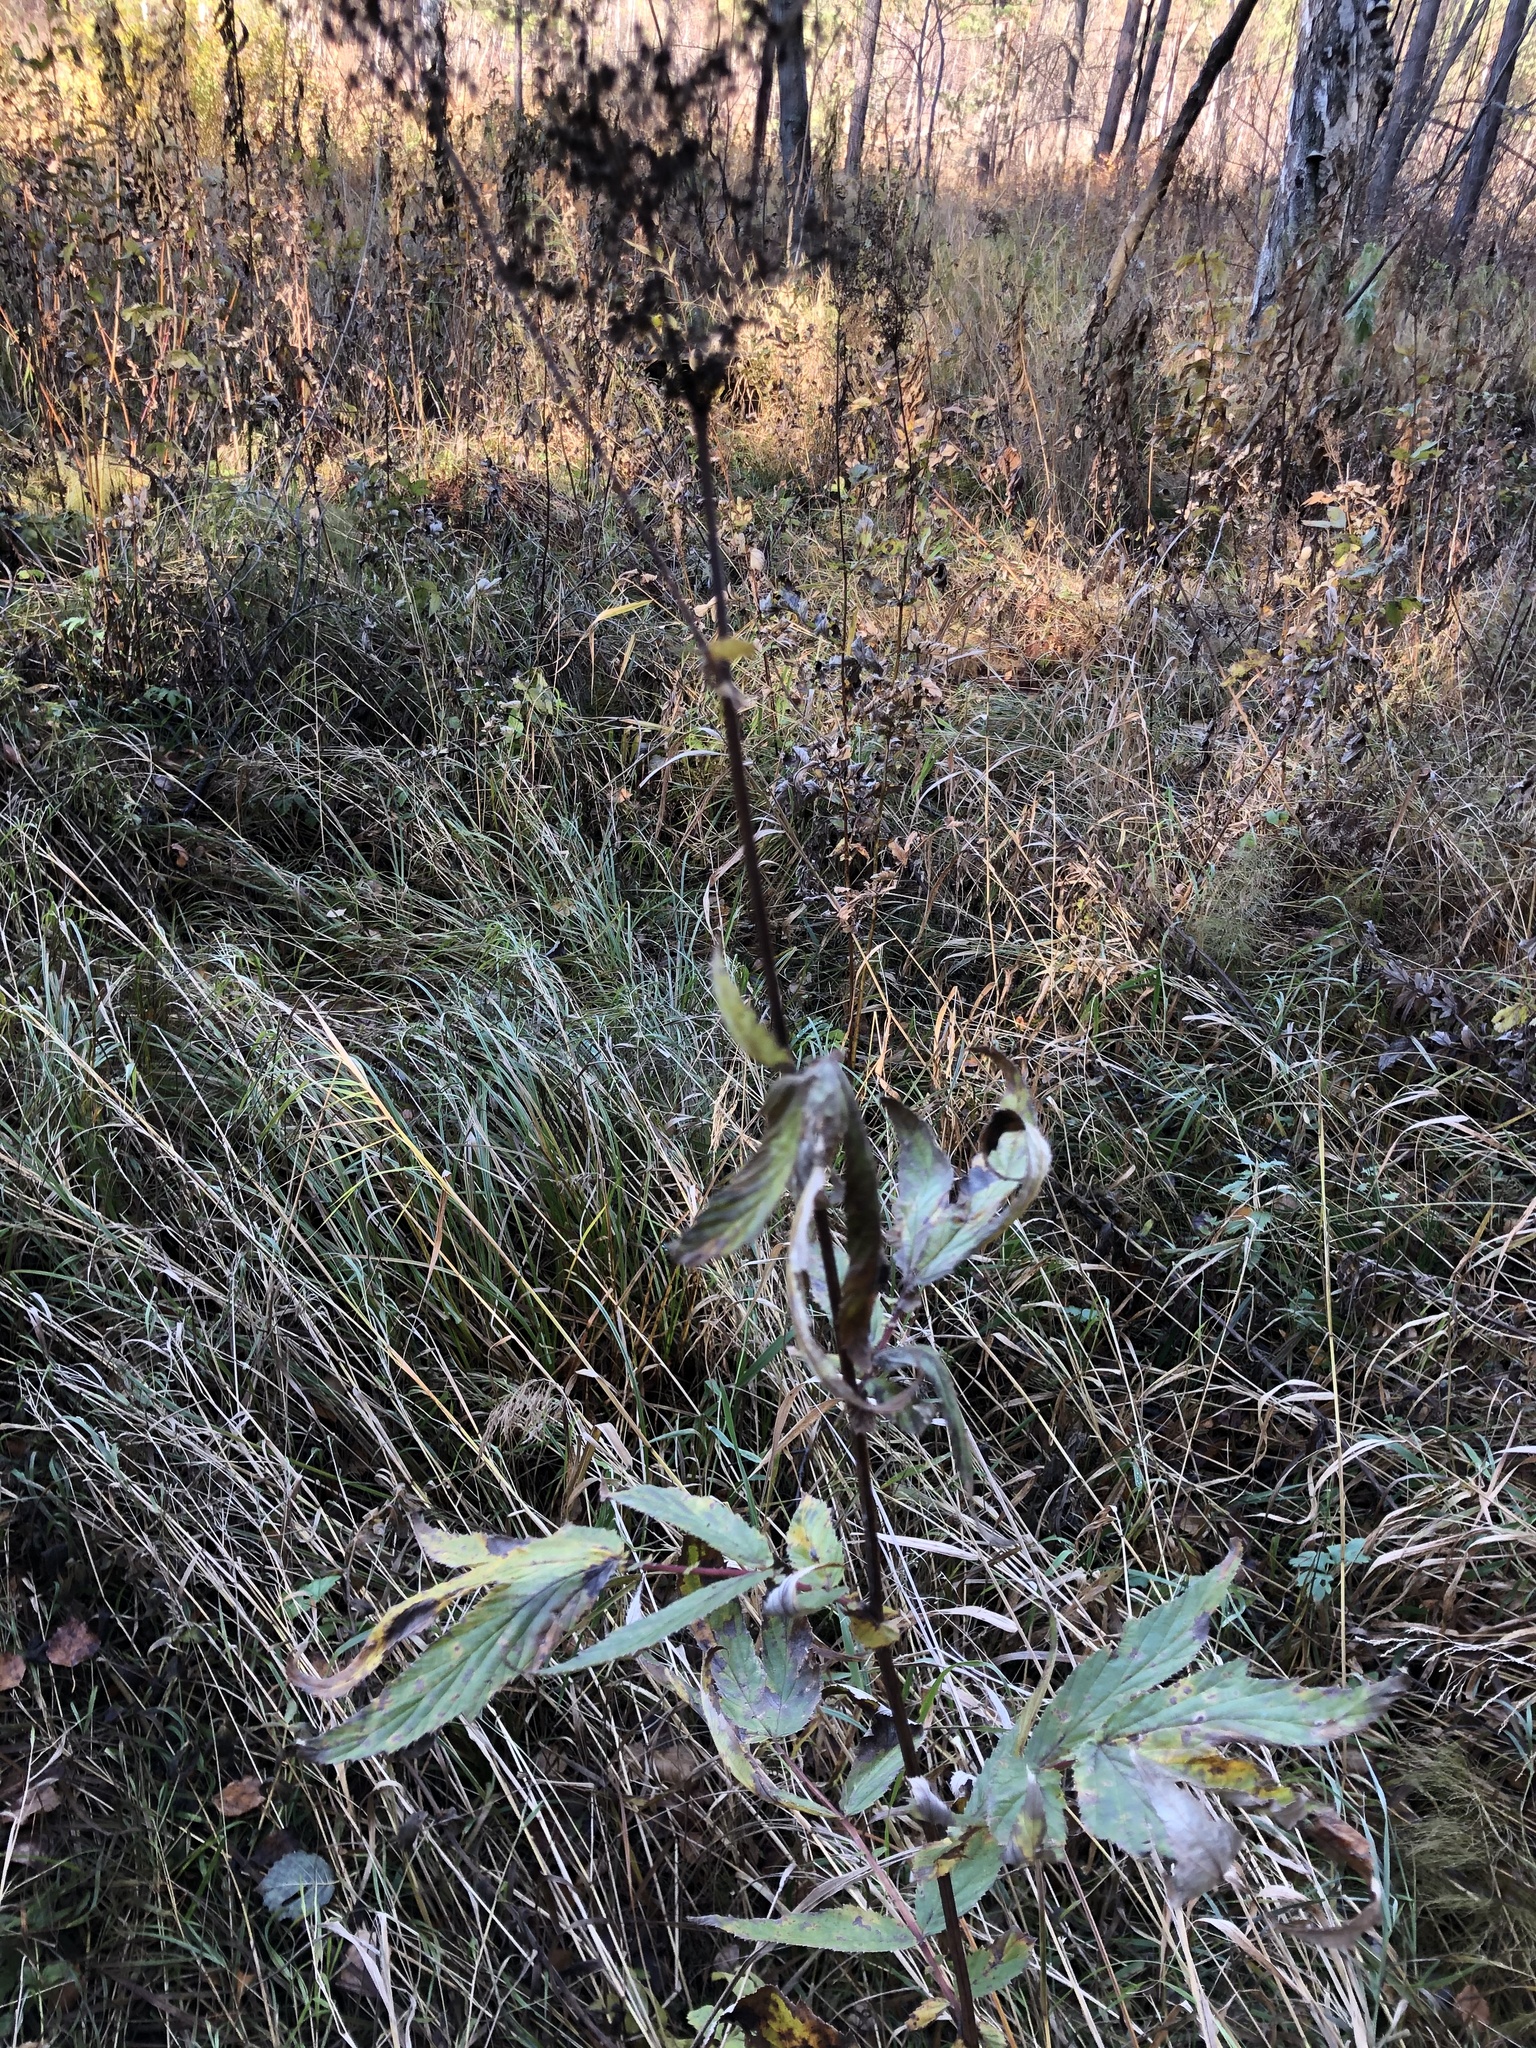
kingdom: Plantae
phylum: Tracheophyta
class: Magnoliopsida
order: Rosales
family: Rosaceae
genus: Filipendula
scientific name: Filipendula ulmaria
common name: Meadowsweet
